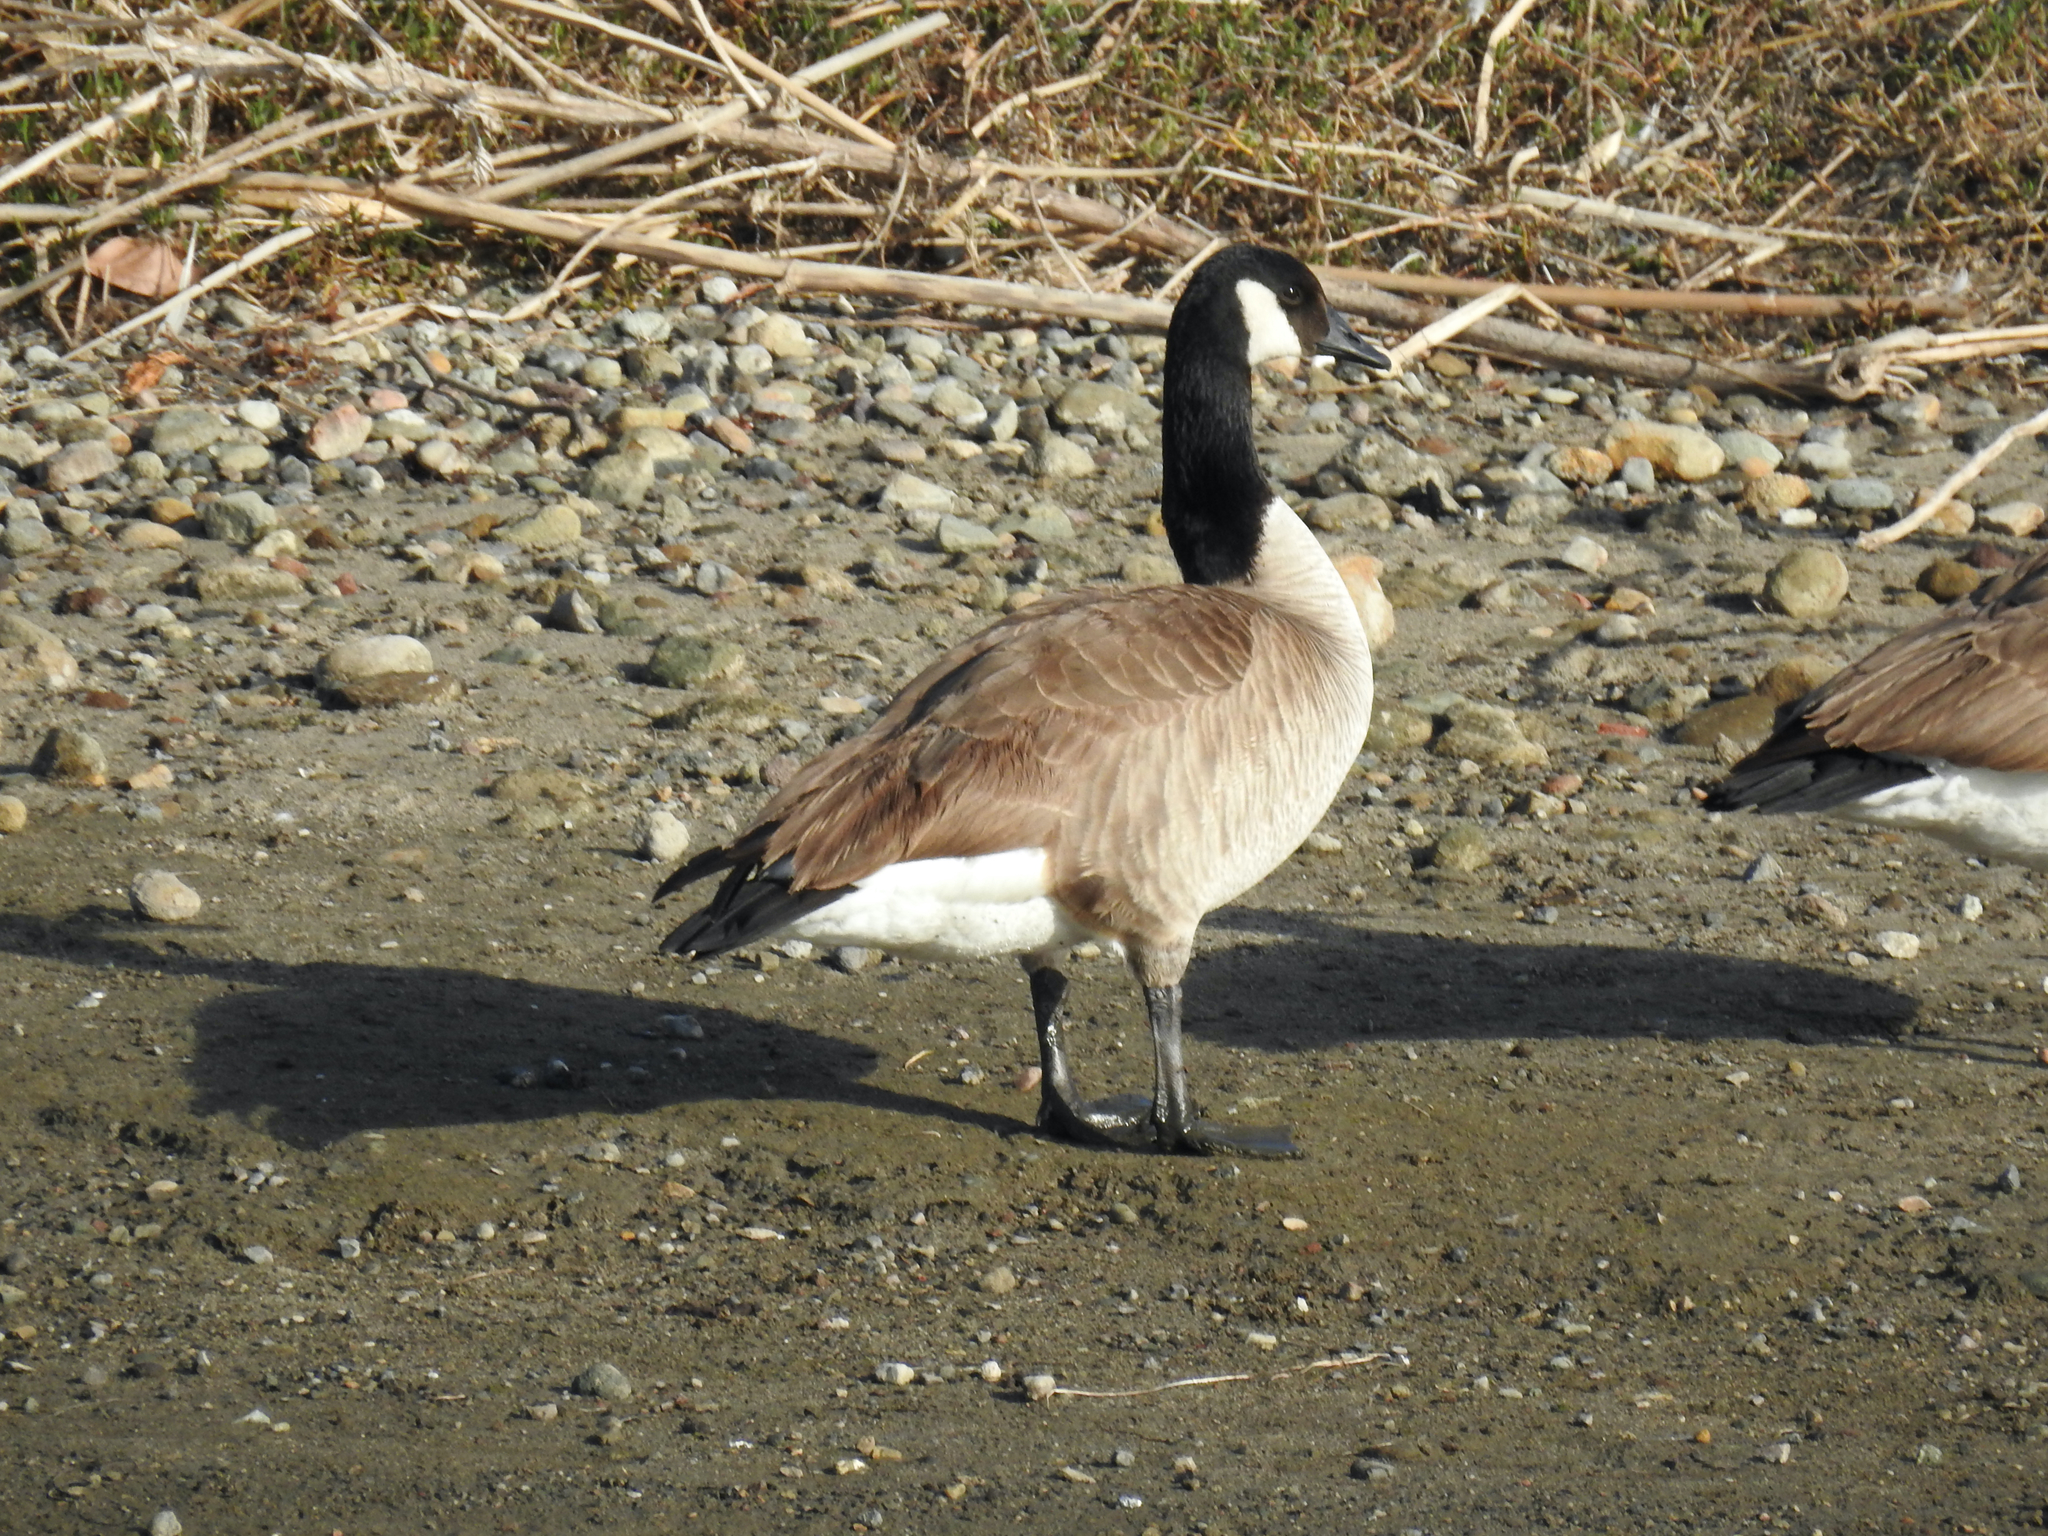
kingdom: Animalia
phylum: Chordata
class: Aves
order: Anseriformes
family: Anatidae
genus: Branta
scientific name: Branta canadensis
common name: Canada goose
